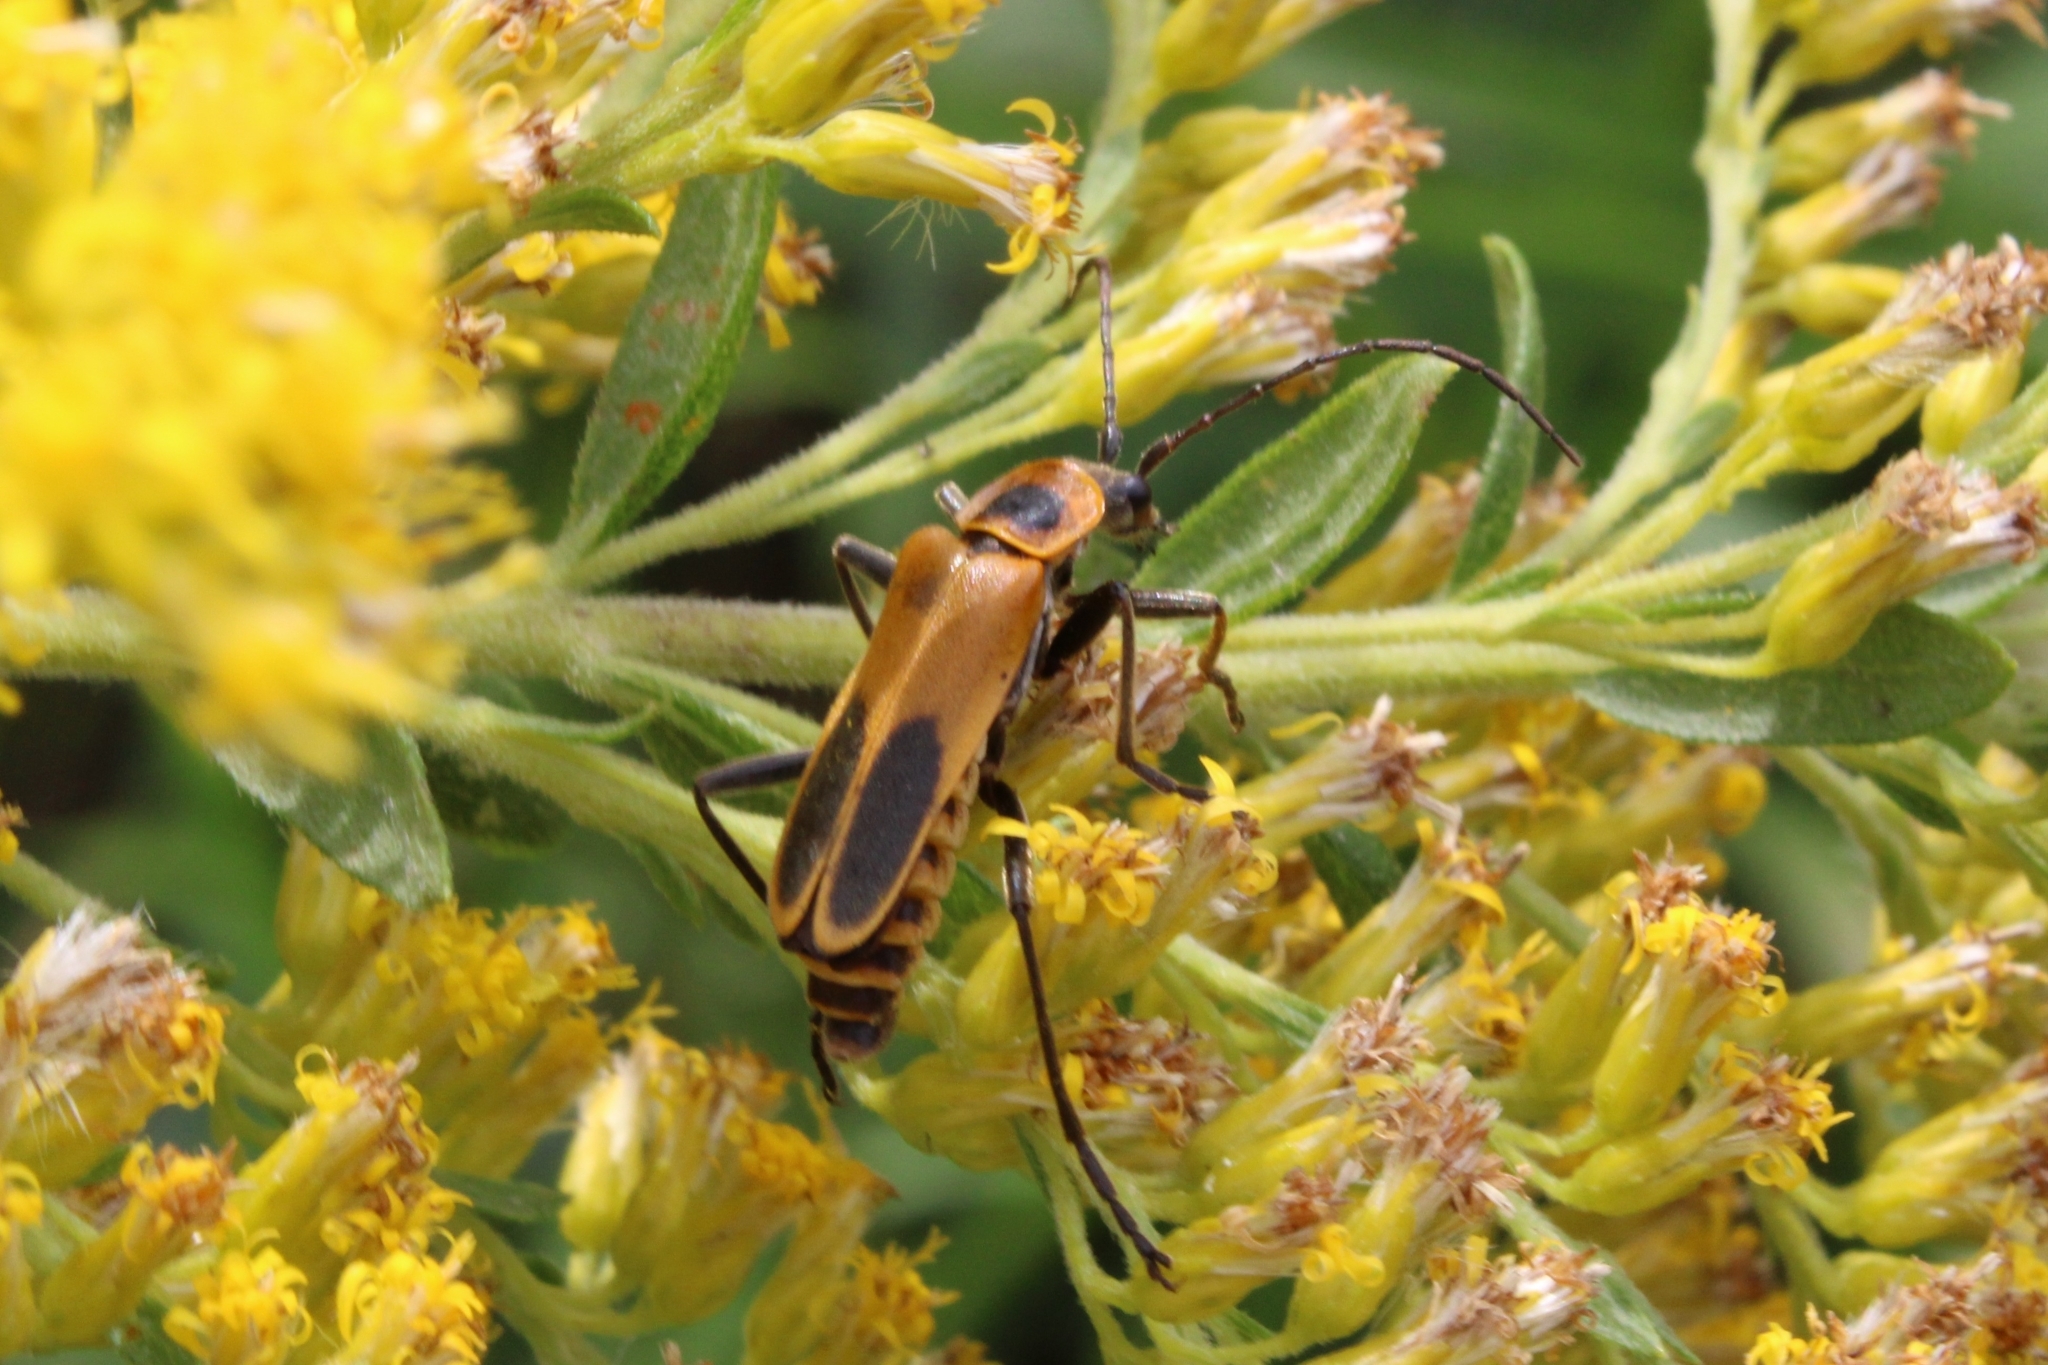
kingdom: Animalia
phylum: Arthropoda
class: Insecta
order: Coleoptera
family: Cantharidae
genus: Chauliognathus
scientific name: Chauliognathus pensylvanicus
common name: Goldenrod soldier beetle
